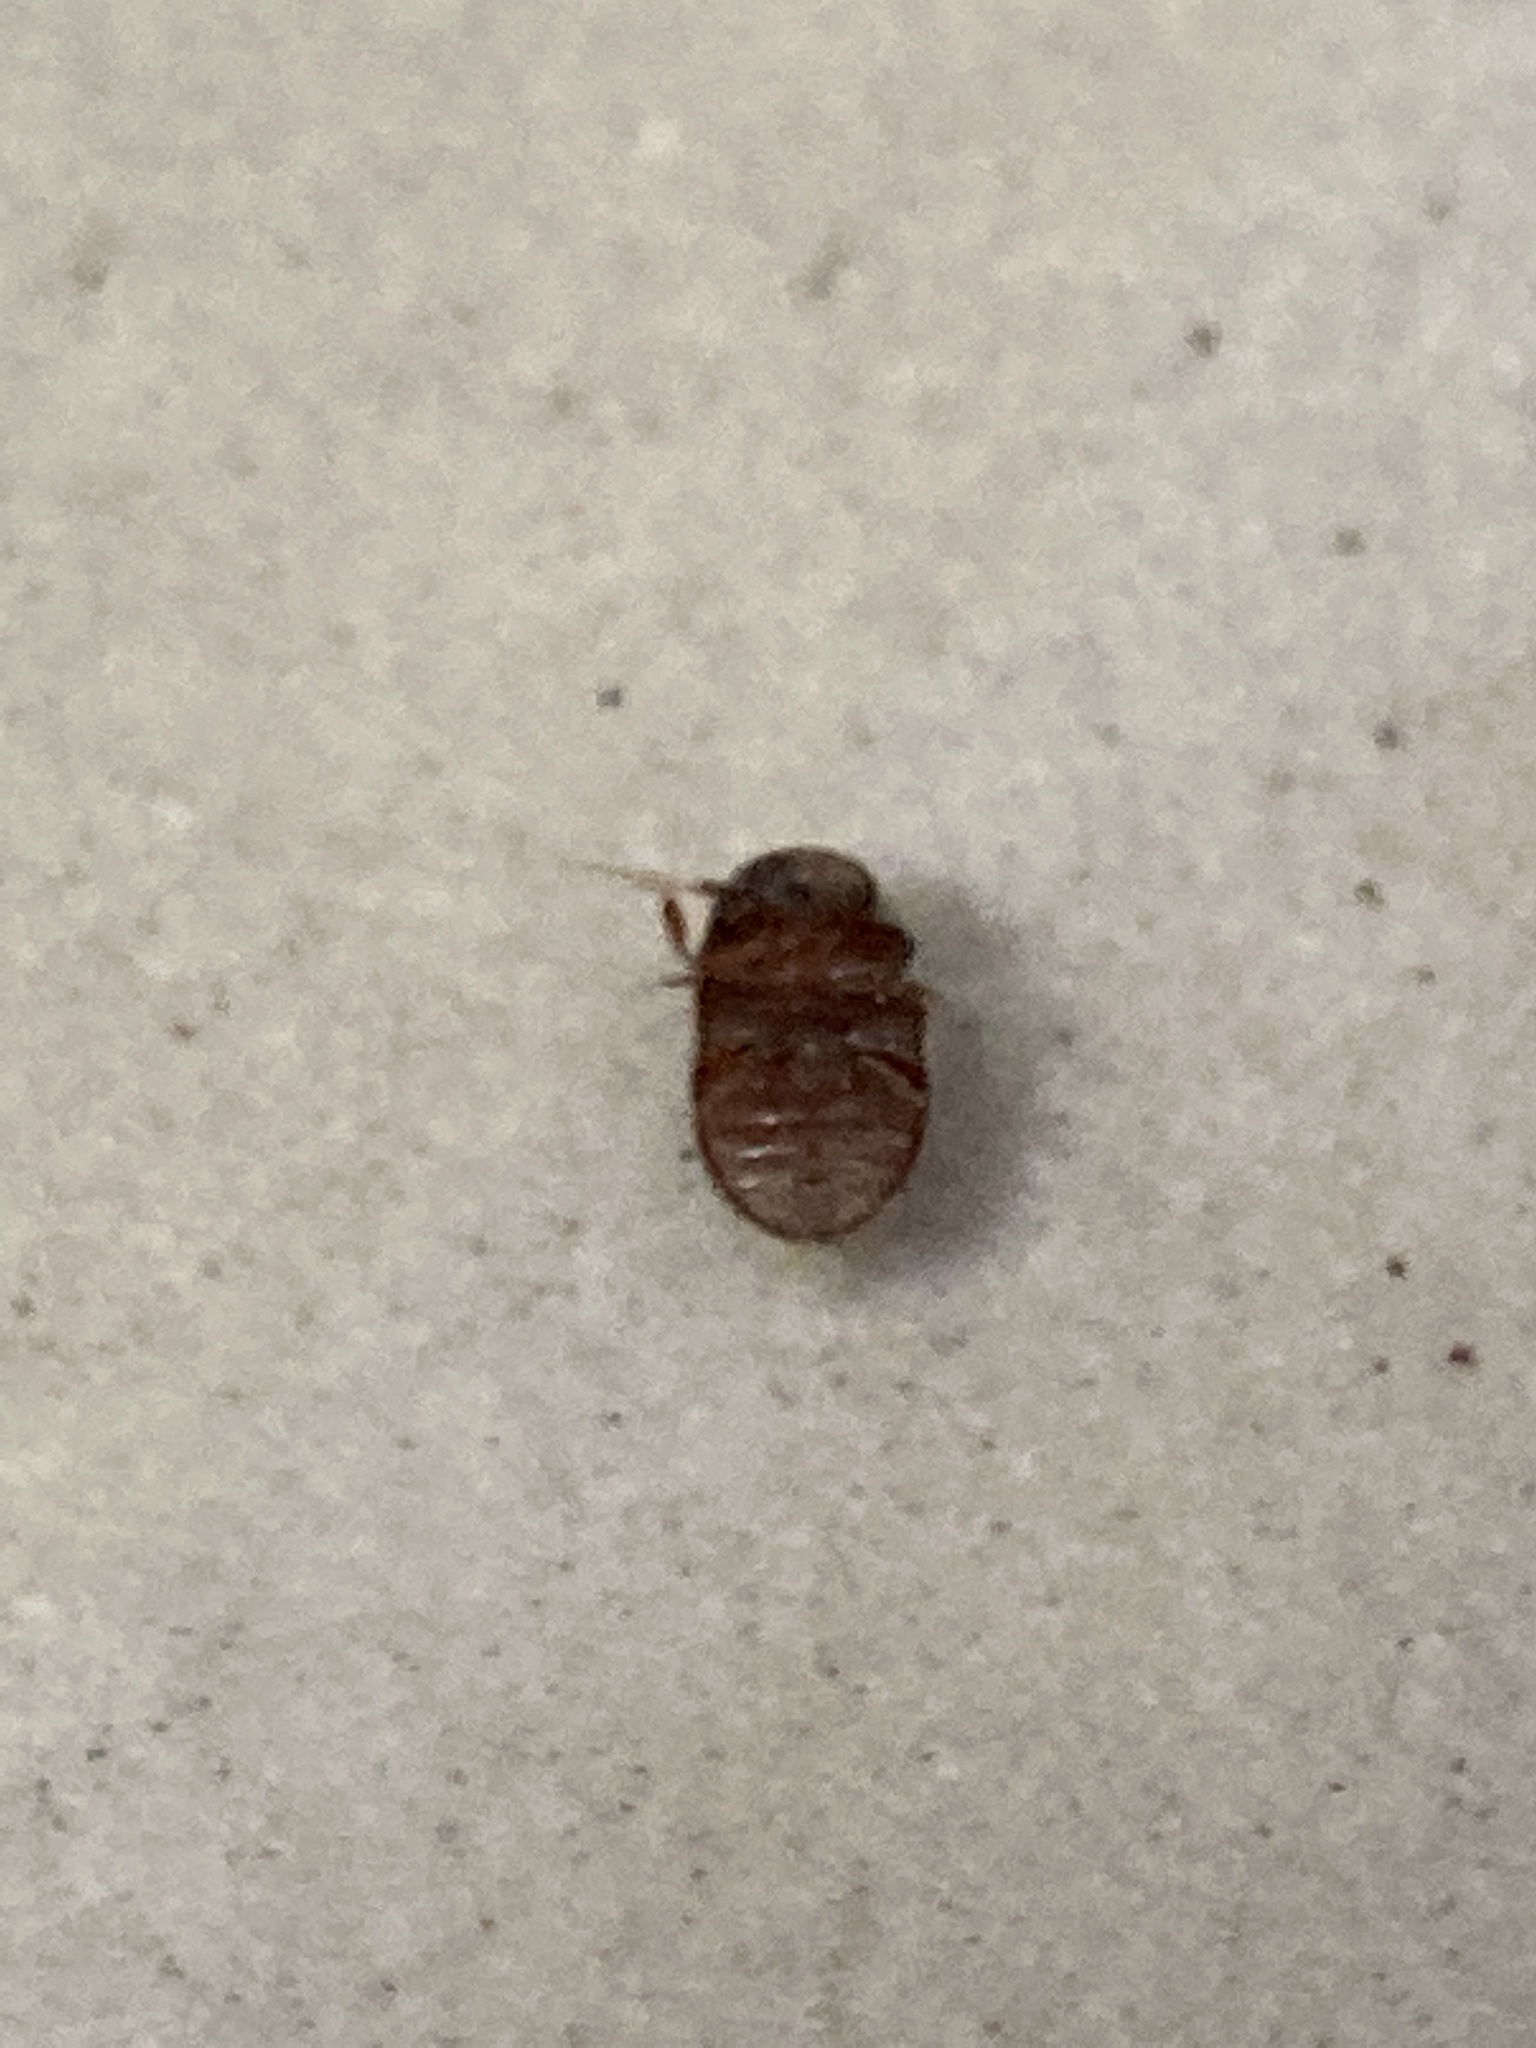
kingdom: Animalia
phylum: Arthropoda
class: Insecta
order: Coleoptera
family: Anobiidae
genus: Lasioderma
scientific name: Lasioderma serricorne
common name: Cigarette beetle
